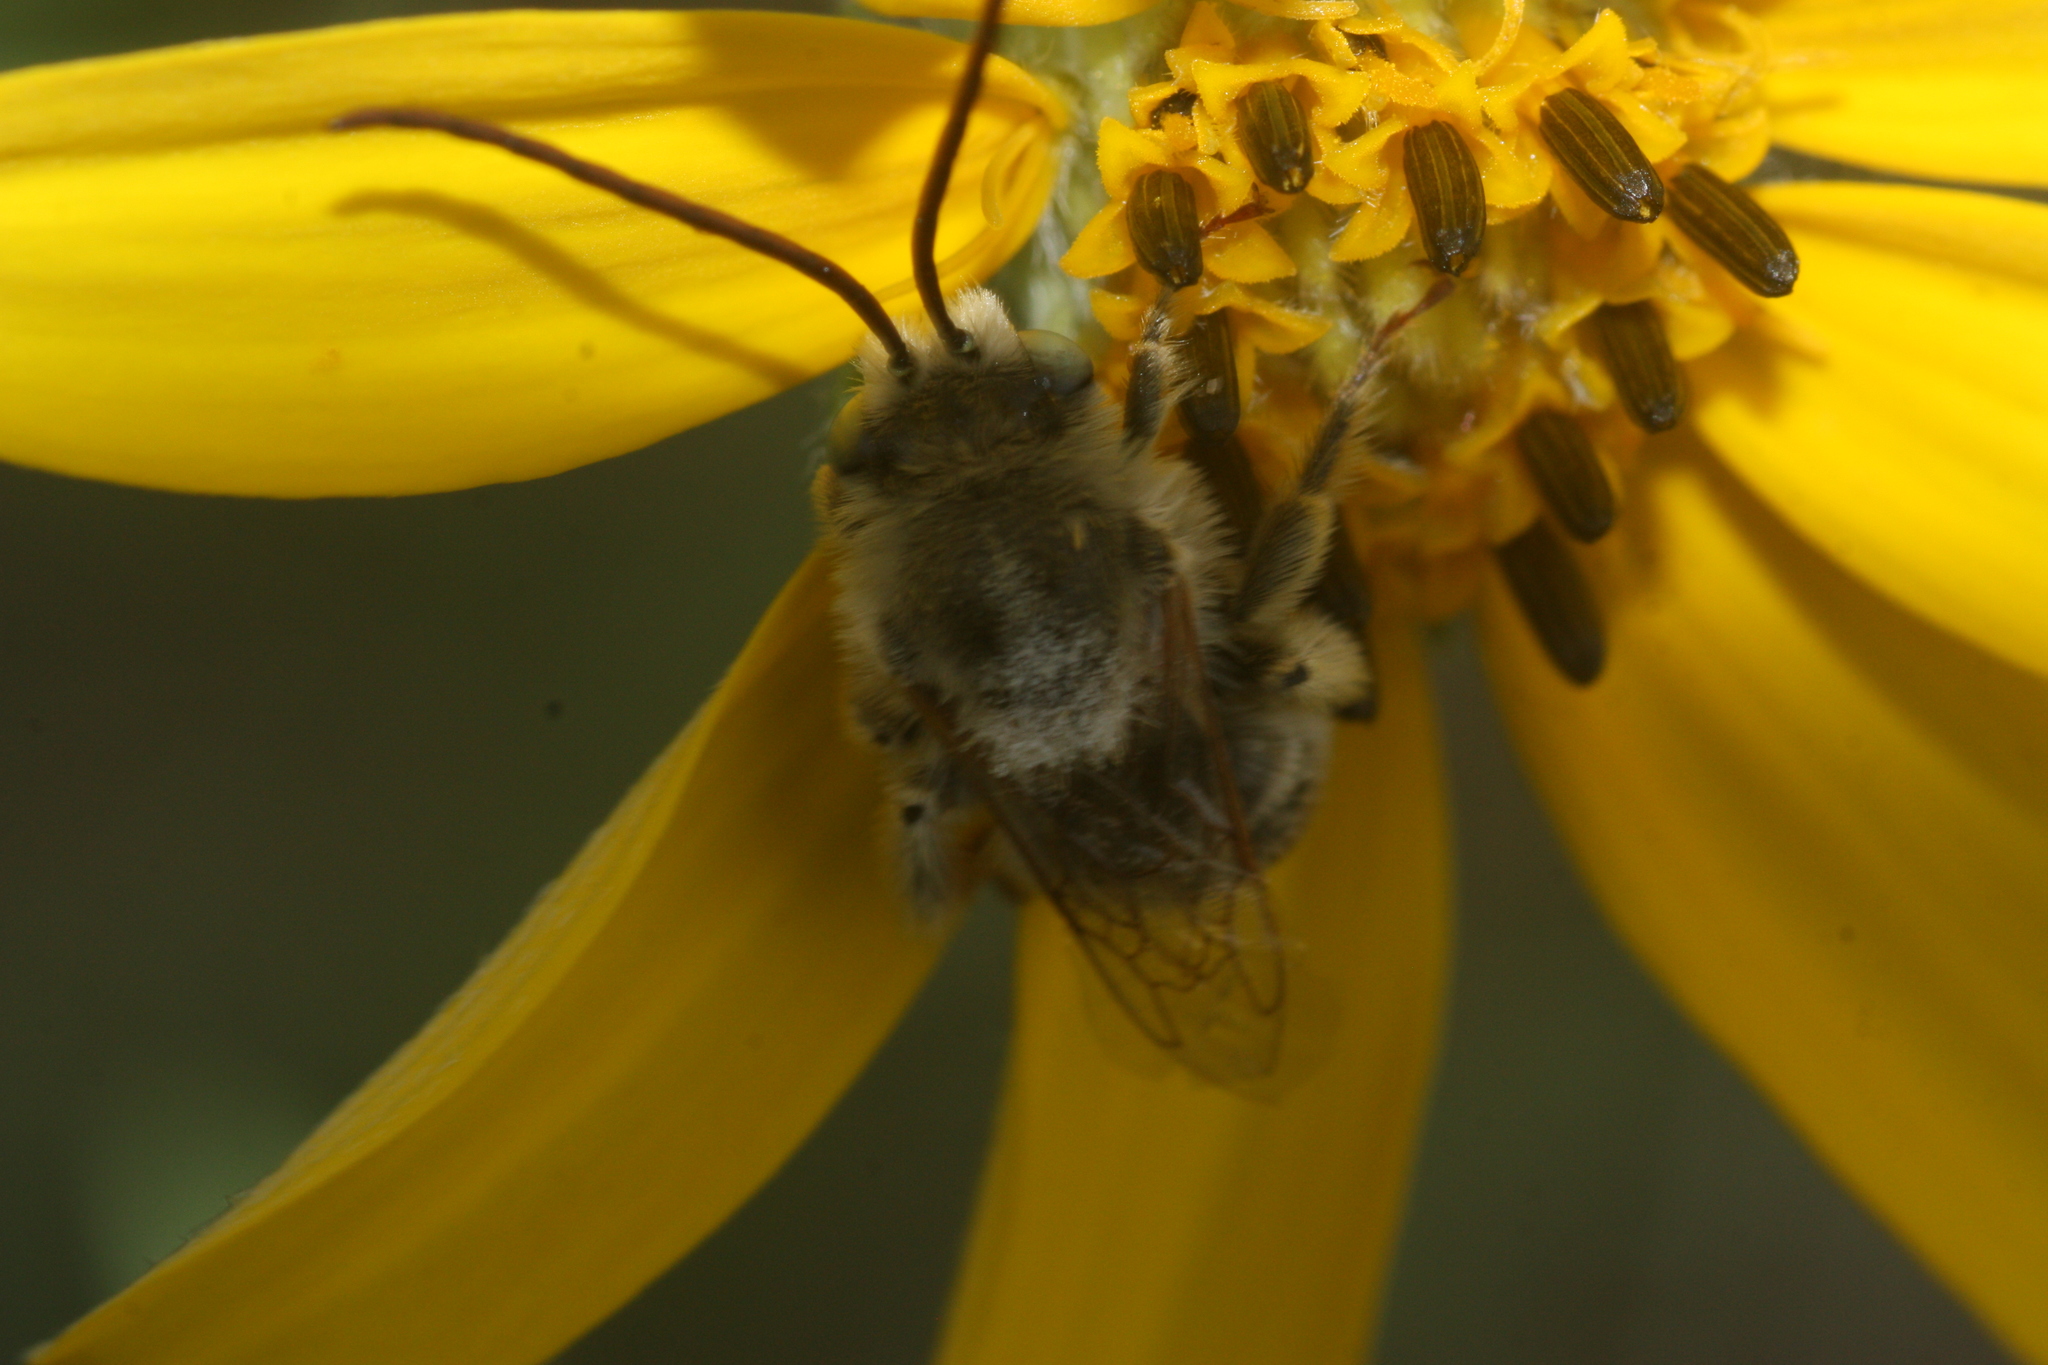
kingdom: Animalia
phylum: Arthropoda
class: Insecta
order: Hymenoptera
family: Apidae
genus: Melissodes
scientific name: Melissodes
